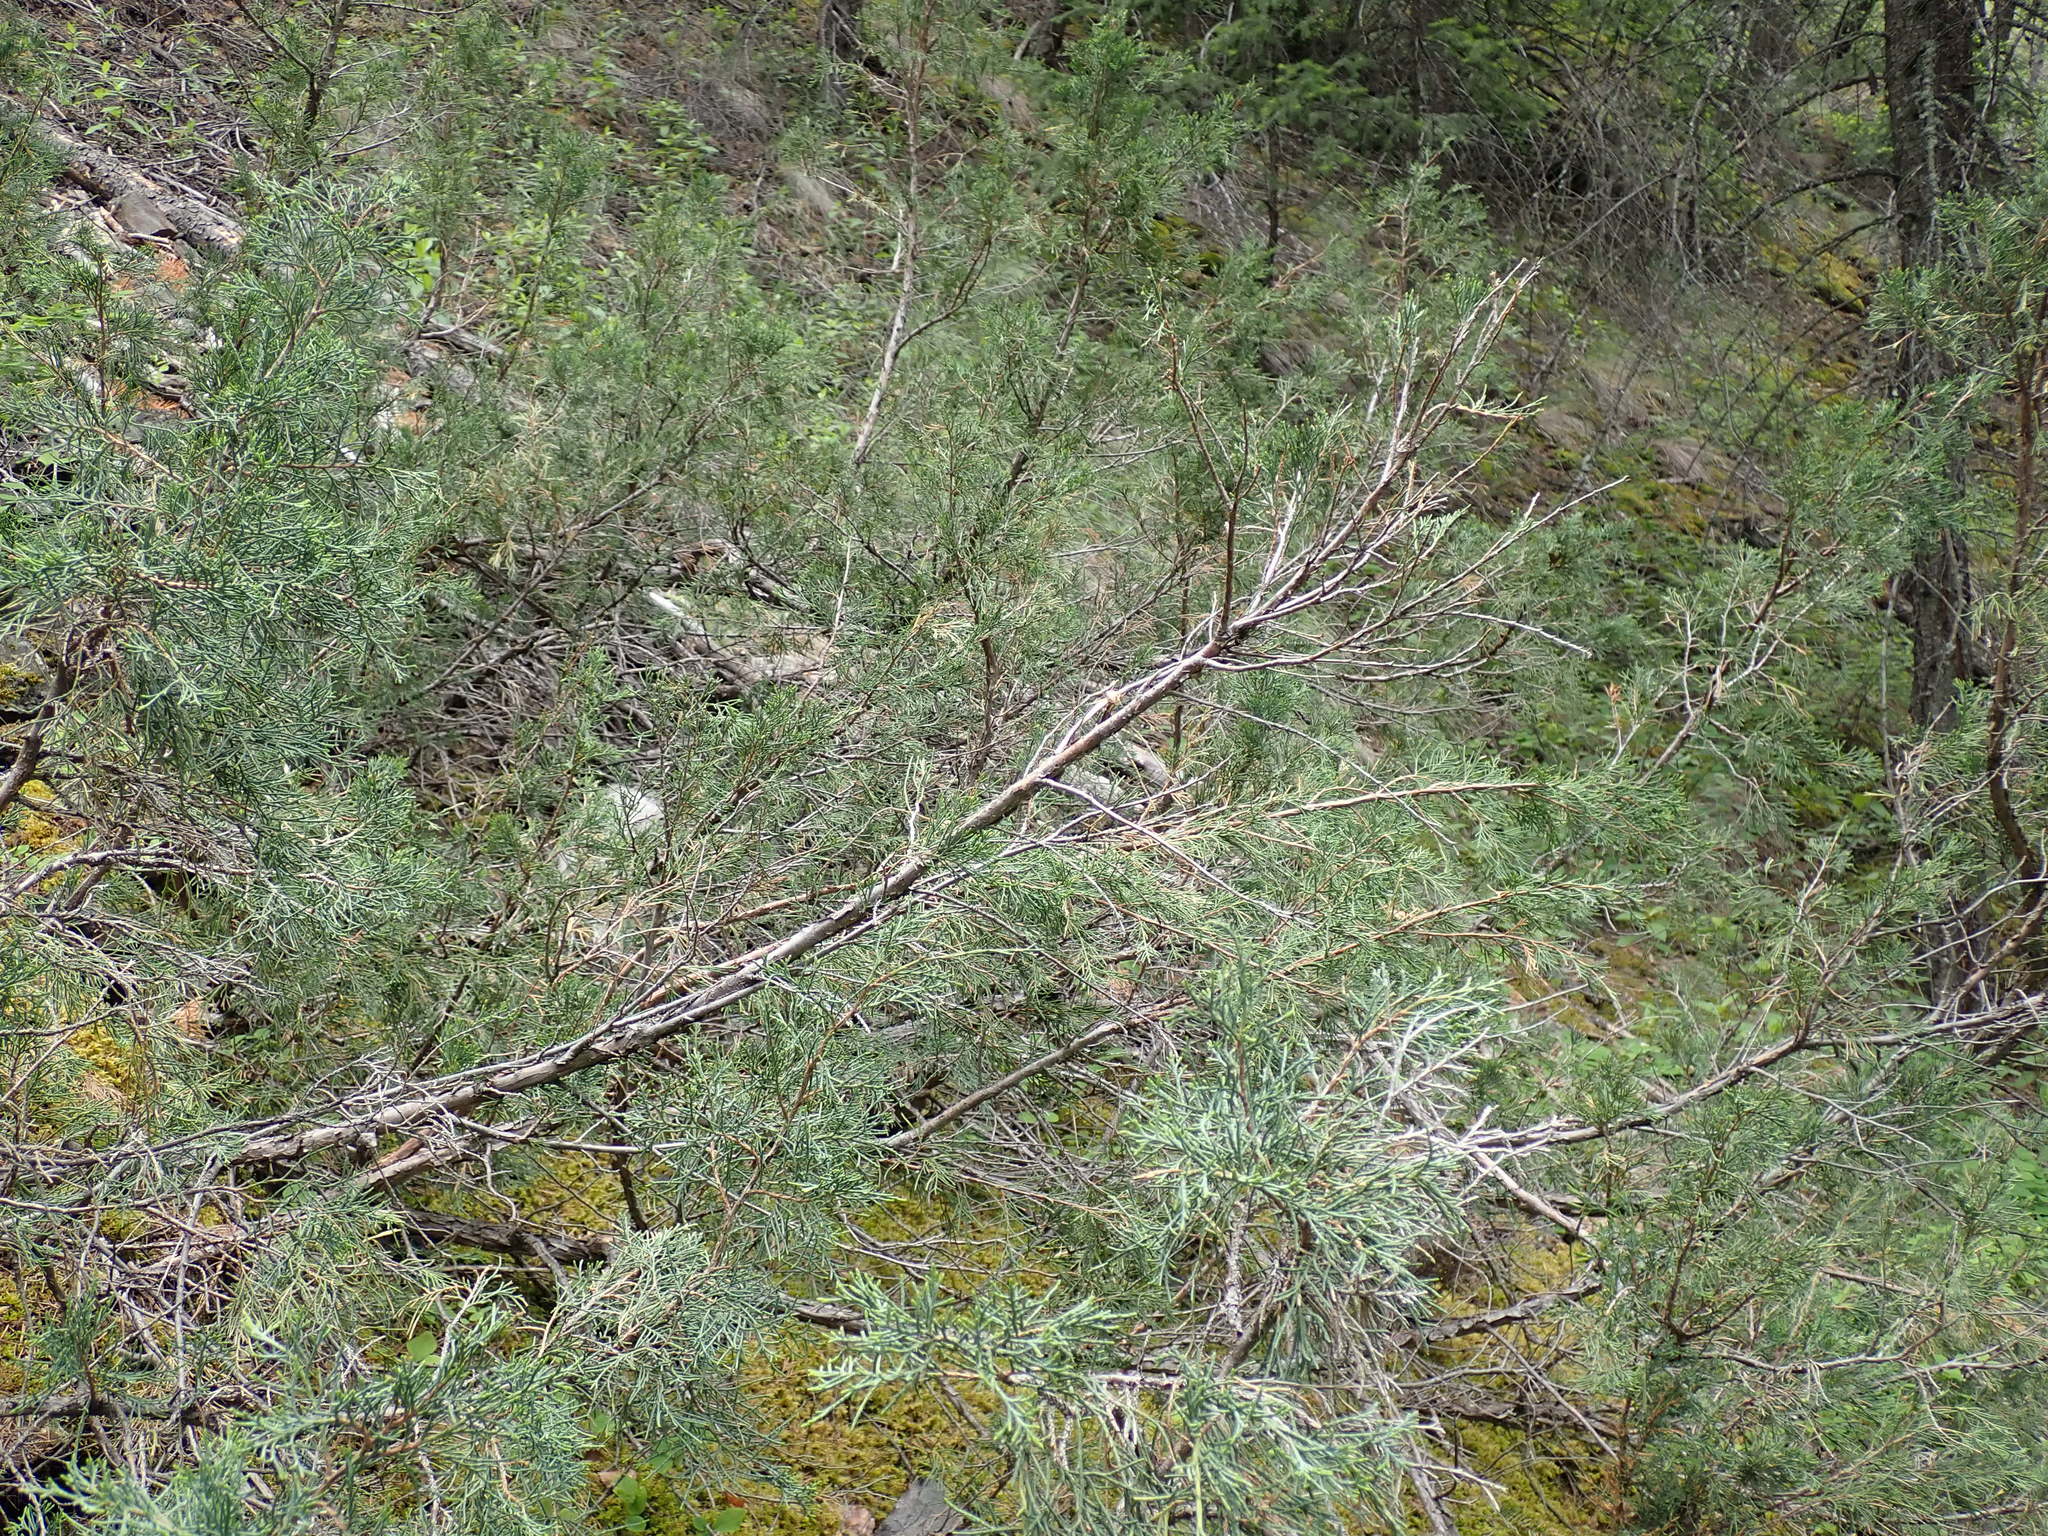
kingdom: Plantae
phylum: Tracheophyta
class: Pinopsida
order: Pinales
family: Cupressaceae
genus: Juniperus
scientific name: Juniperus scopulorum
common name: Rocky mountain juniper
